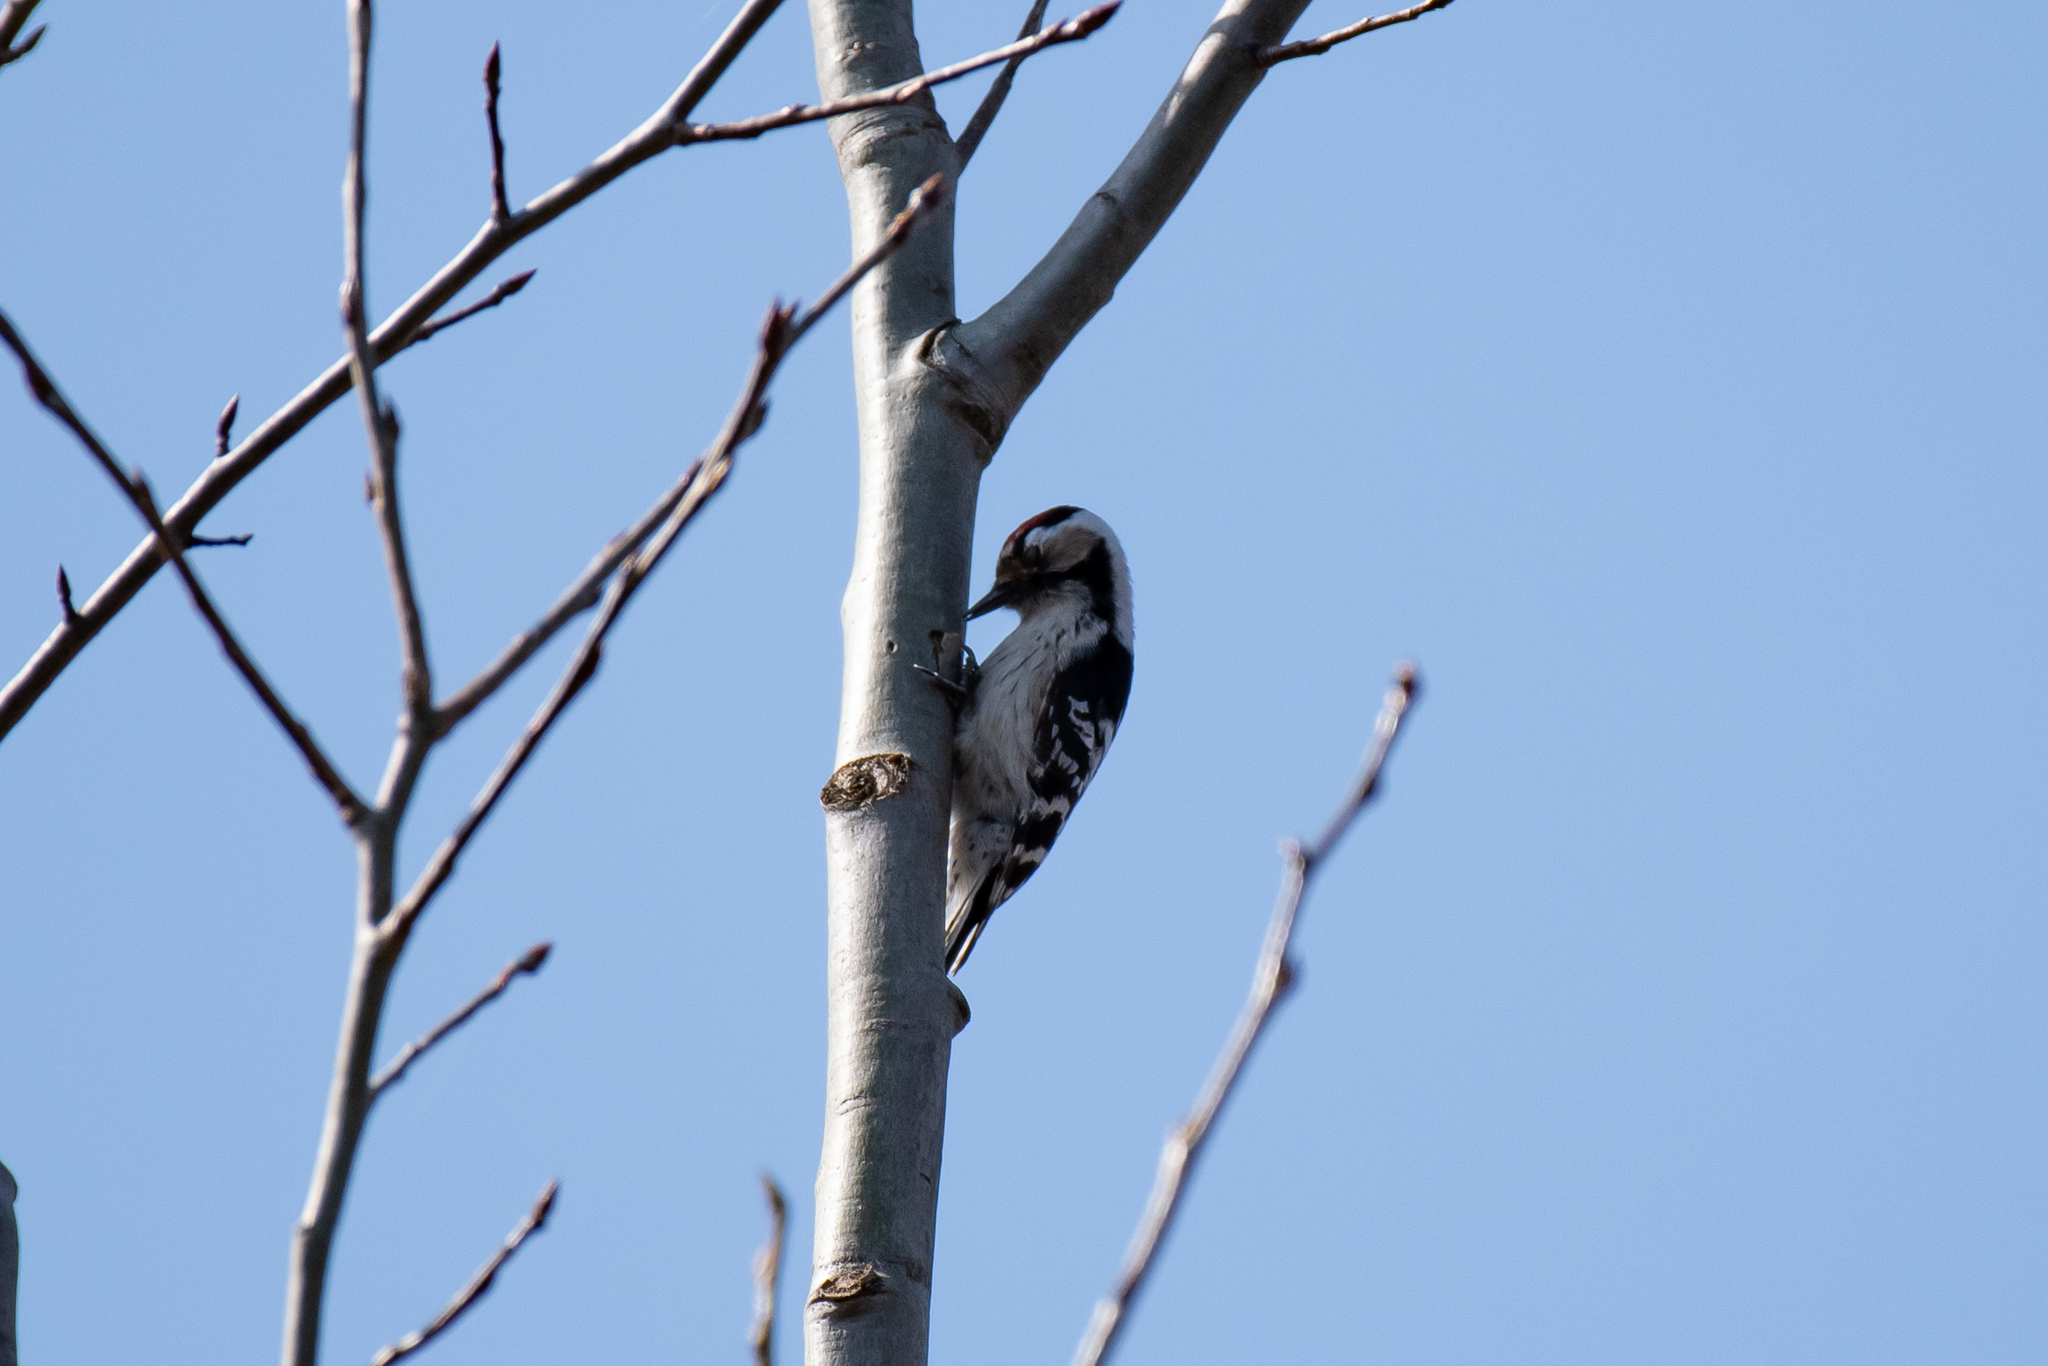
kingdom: Animalia
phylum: Chordata
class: Aves
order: Piciformes
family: Picidae
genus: Dryobates
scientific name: Dryobates minor
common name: Lesser spotted woodpecker
